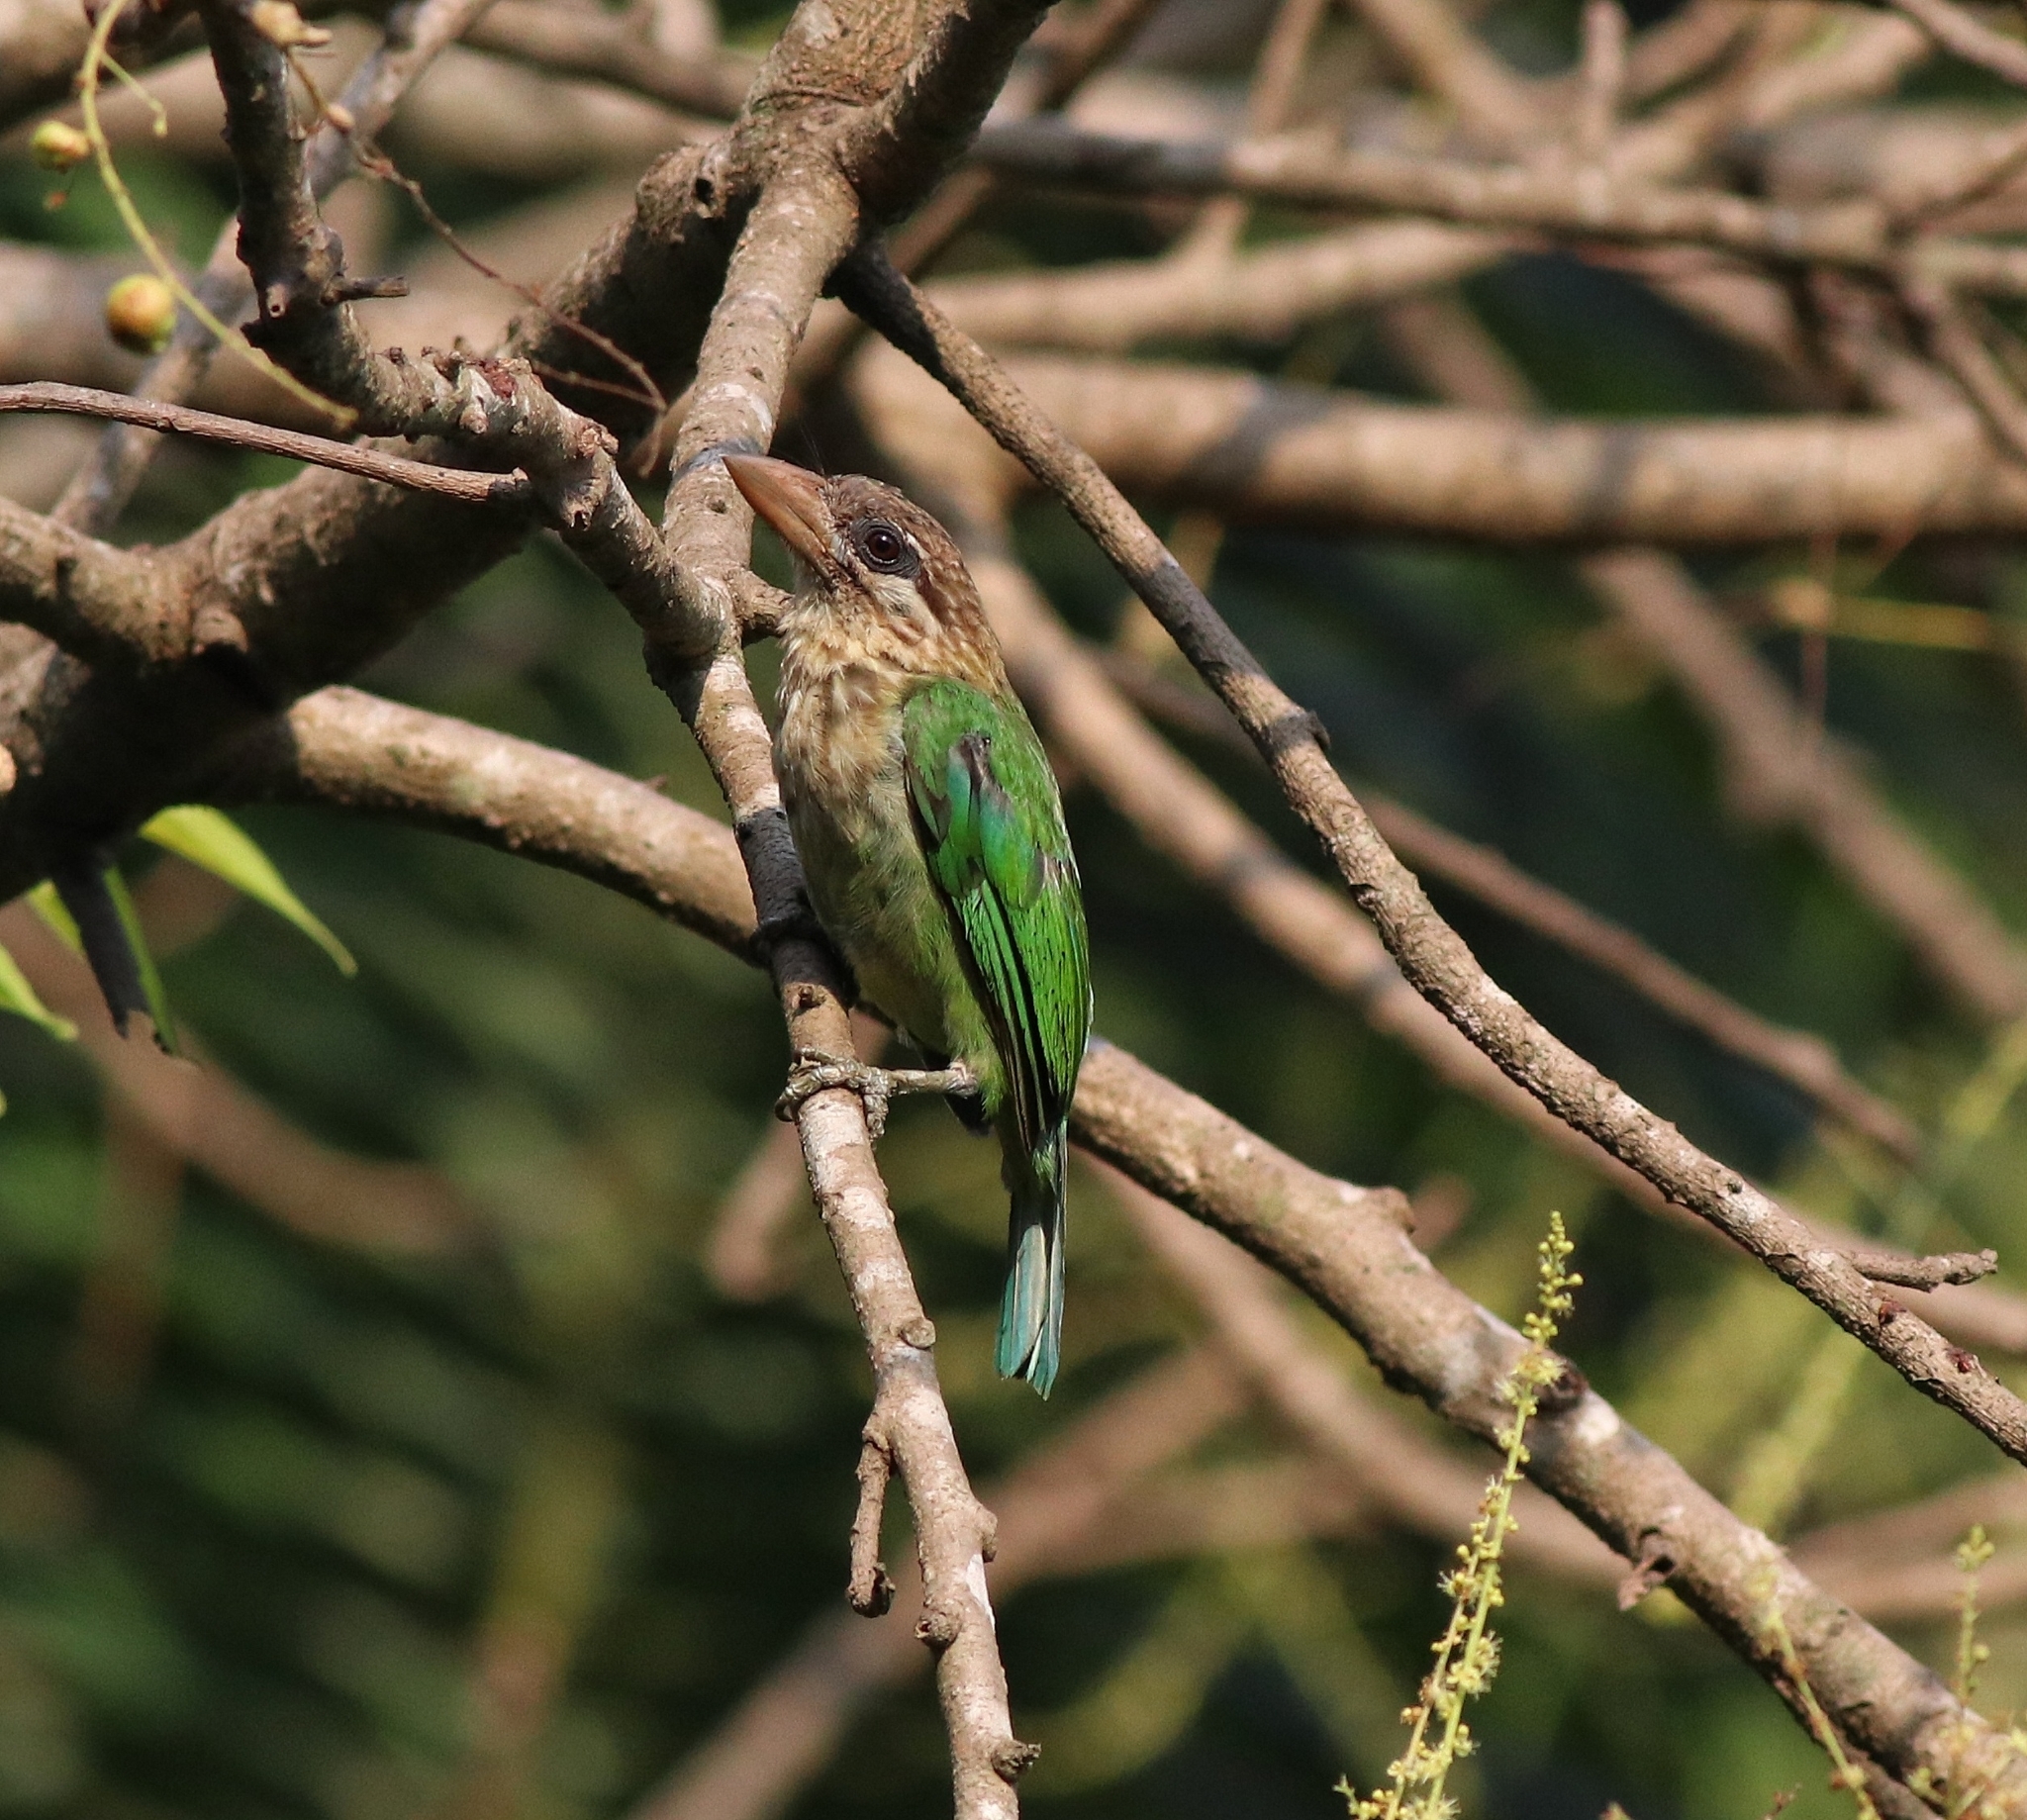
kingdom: Animalia
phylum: Chordata
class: Aves
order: Piciformes
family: Megalaimidae
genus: Psilopogon
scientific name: Psilopogon viridis
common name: White-cheeked barbet
